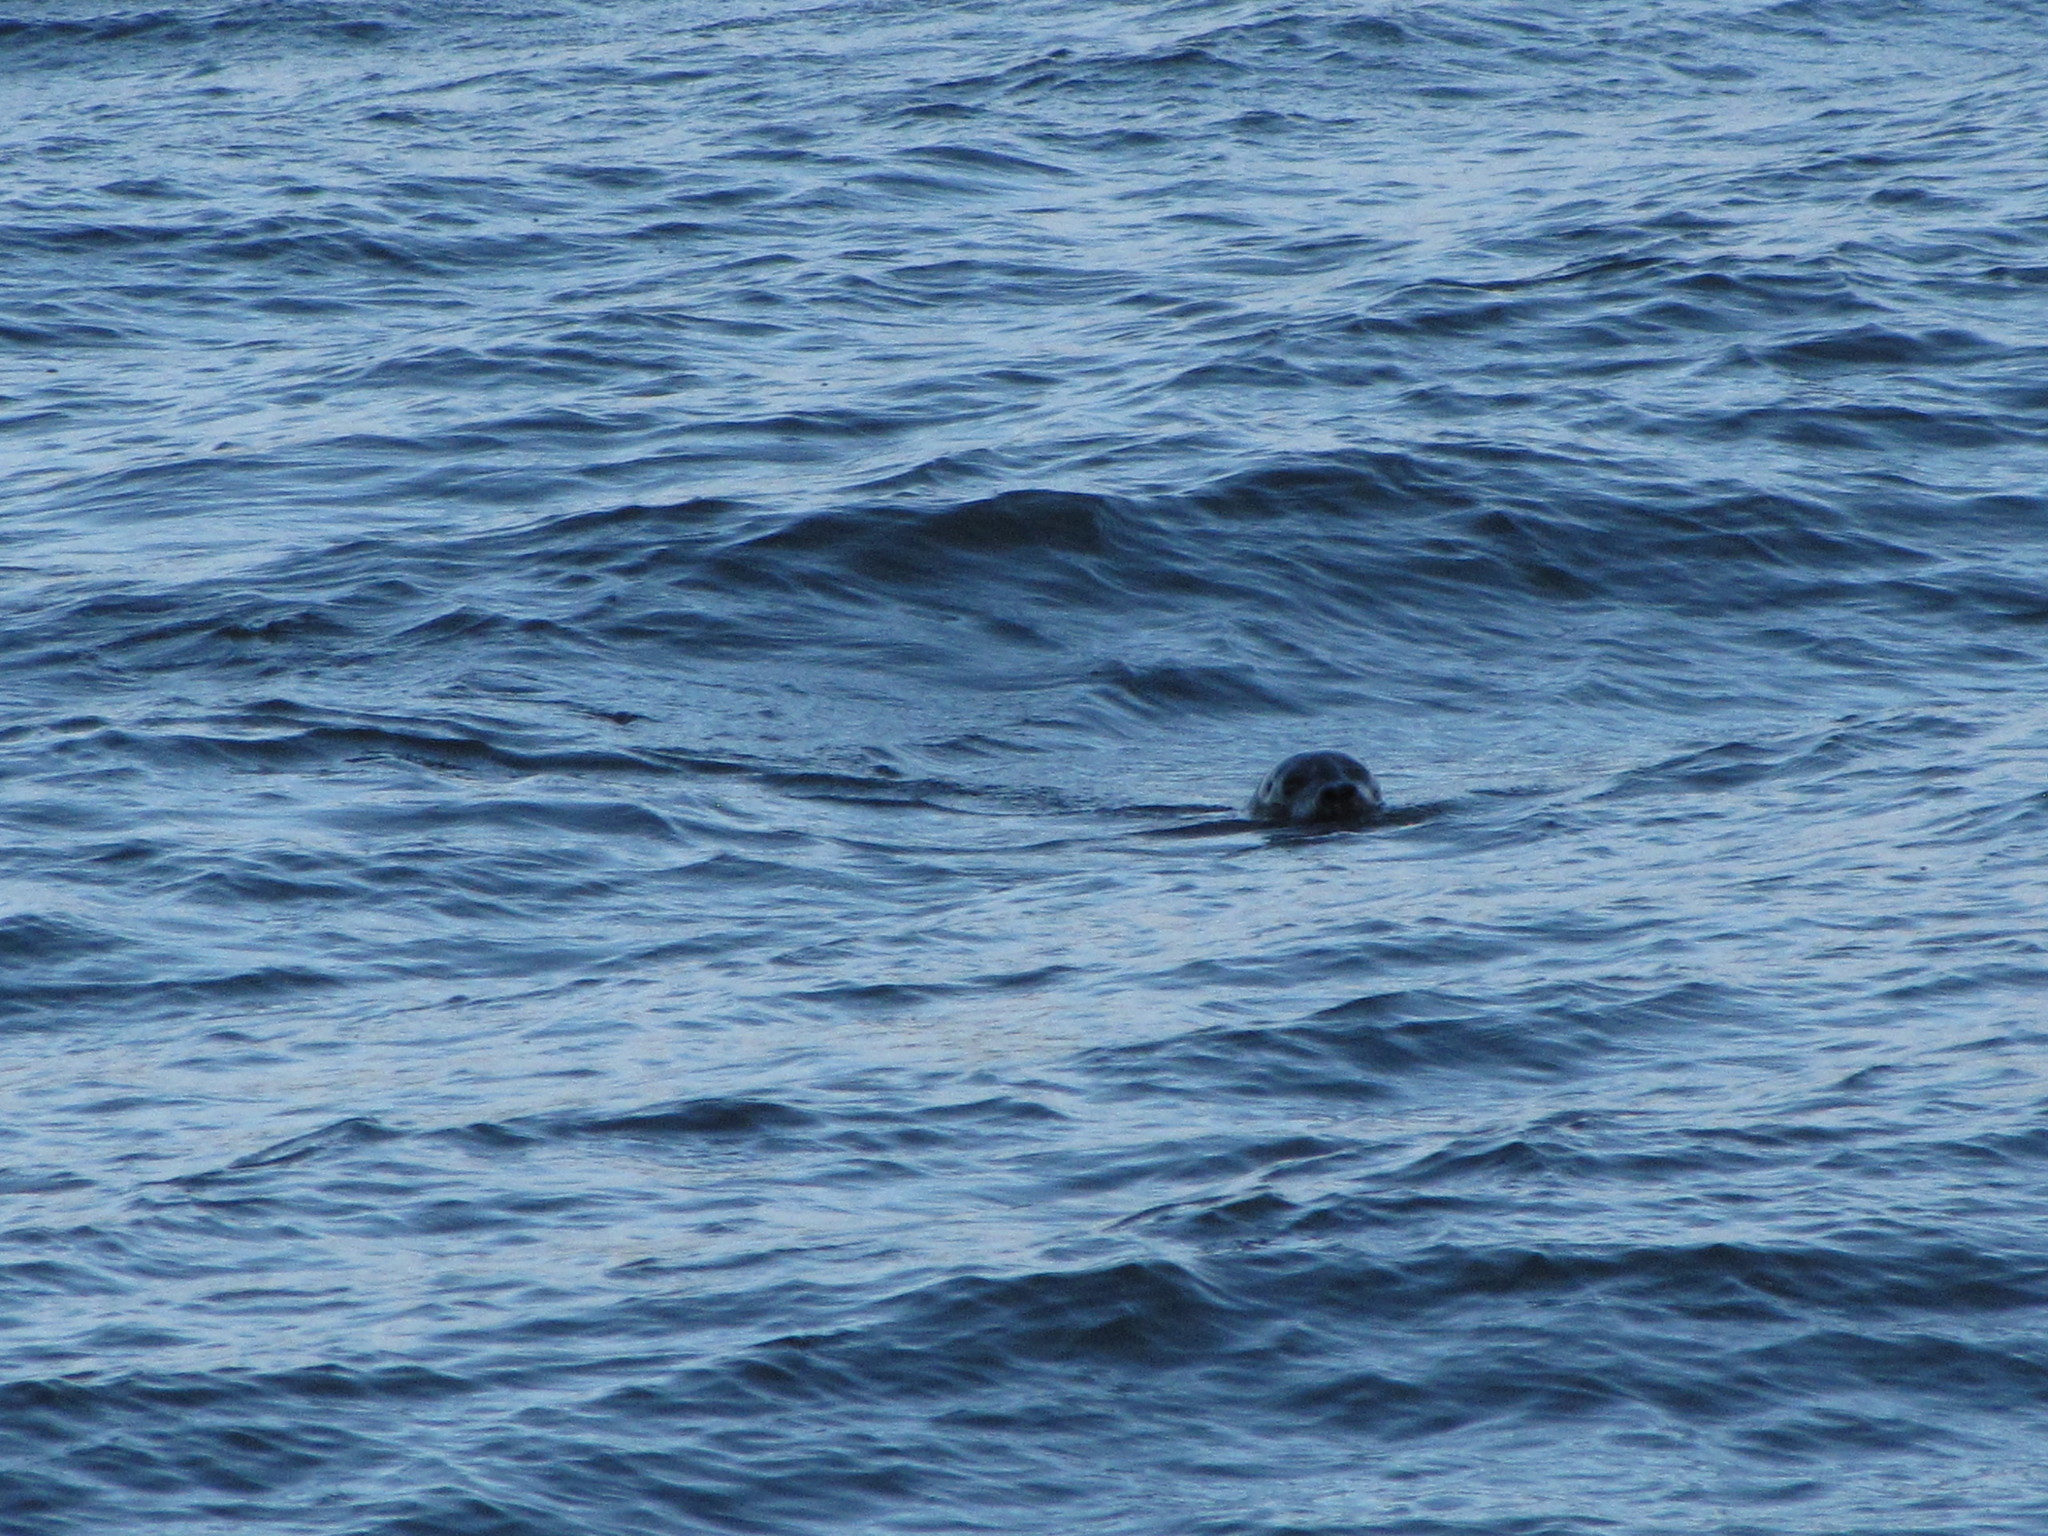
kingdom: Animalia
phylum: Chordata
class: Mammalia
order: Carnivora
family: Phocidae
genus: Phoca
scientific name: Phoca vitulina
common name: Harbor seal
